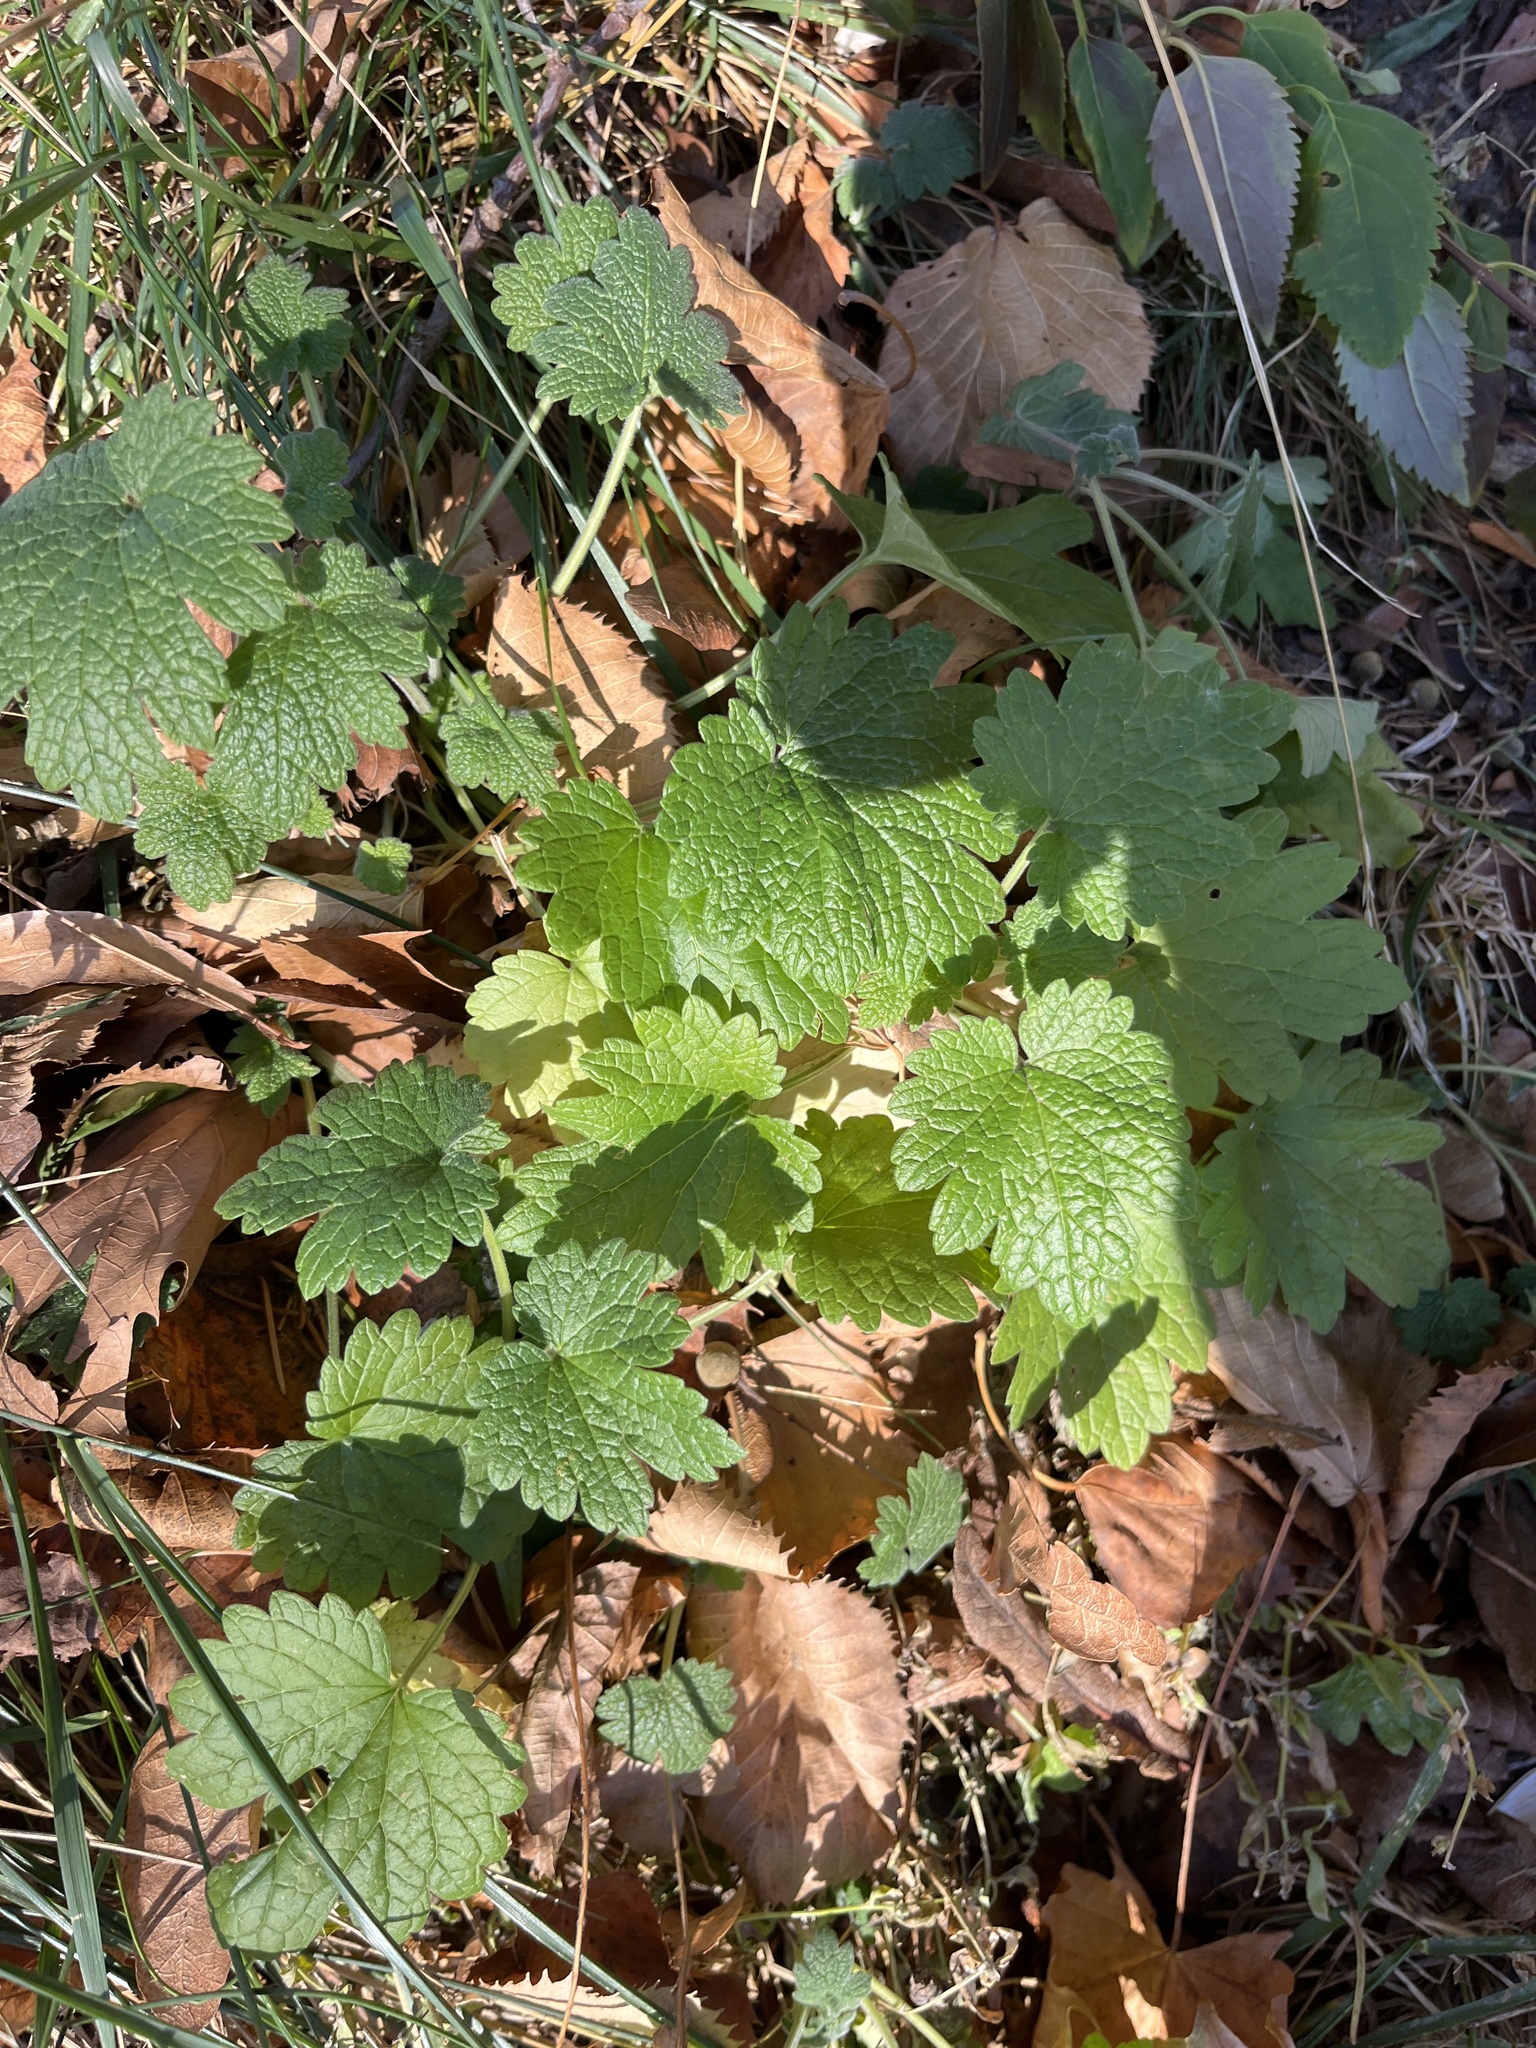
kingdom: Plantae
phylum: Tracheophyta
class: Magnoliopsida
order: Lamiales
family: Lamiaceae
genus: Leonurus
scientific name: Leonurus cardiaca
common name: Motherwort
